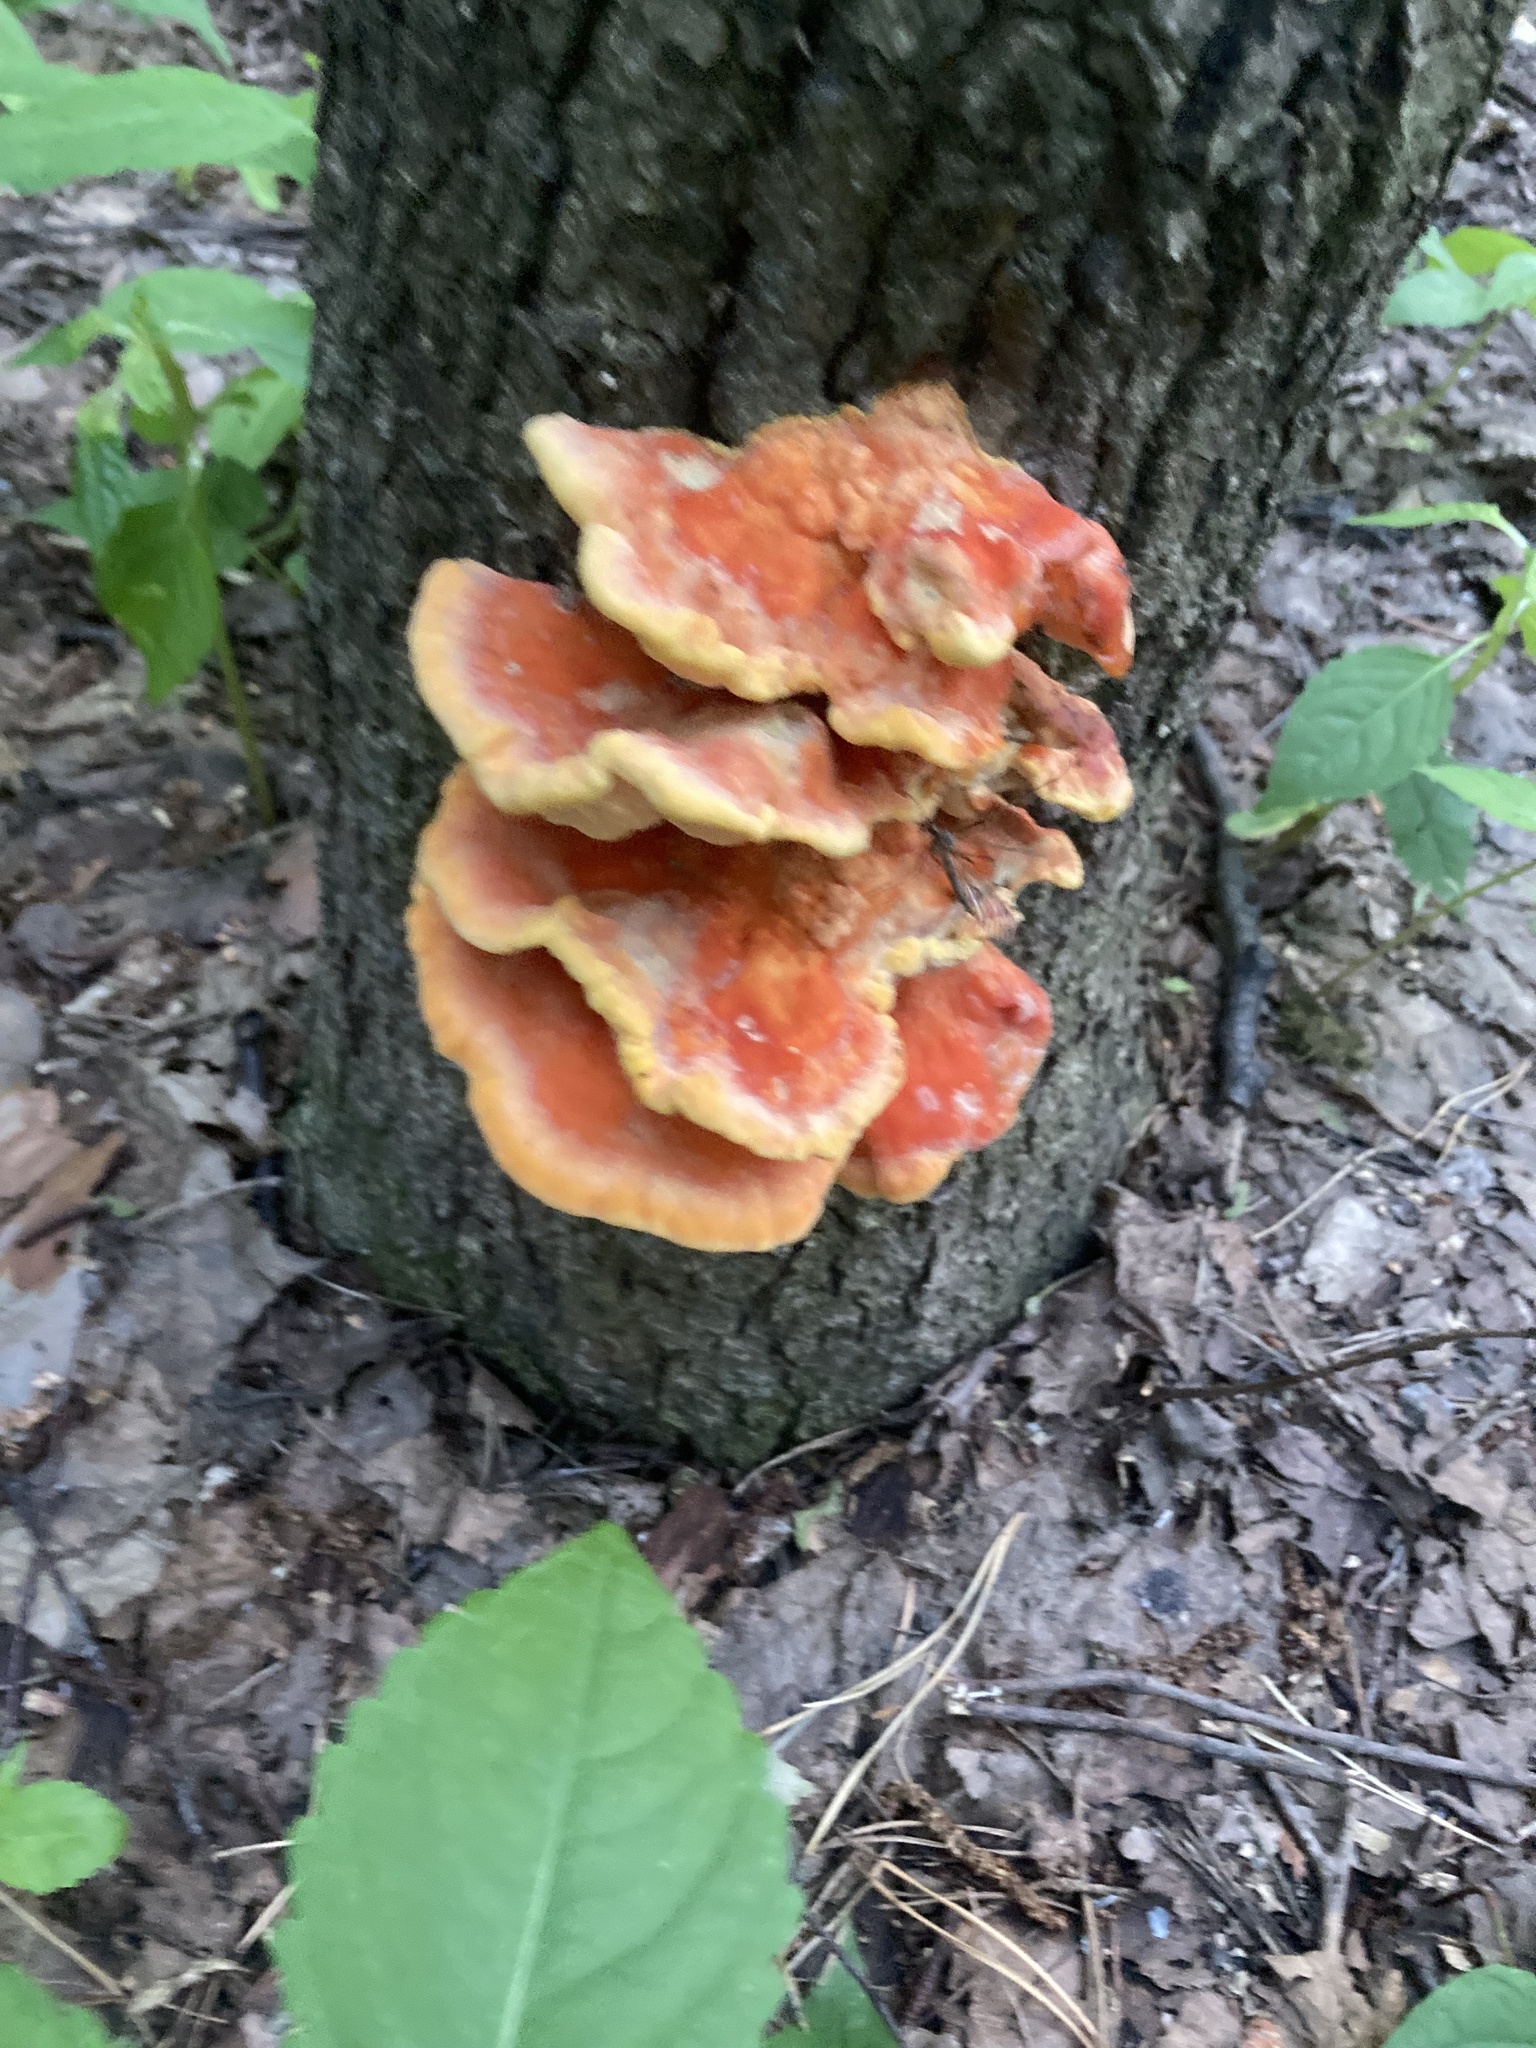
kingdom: Fungi
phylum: Basidiomycota
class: Agaricomycetes
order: Polyporales
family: Laetiporaceae
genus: Laetiporus
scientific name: Laetiporus sulphureus
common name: Chicken of the woods
